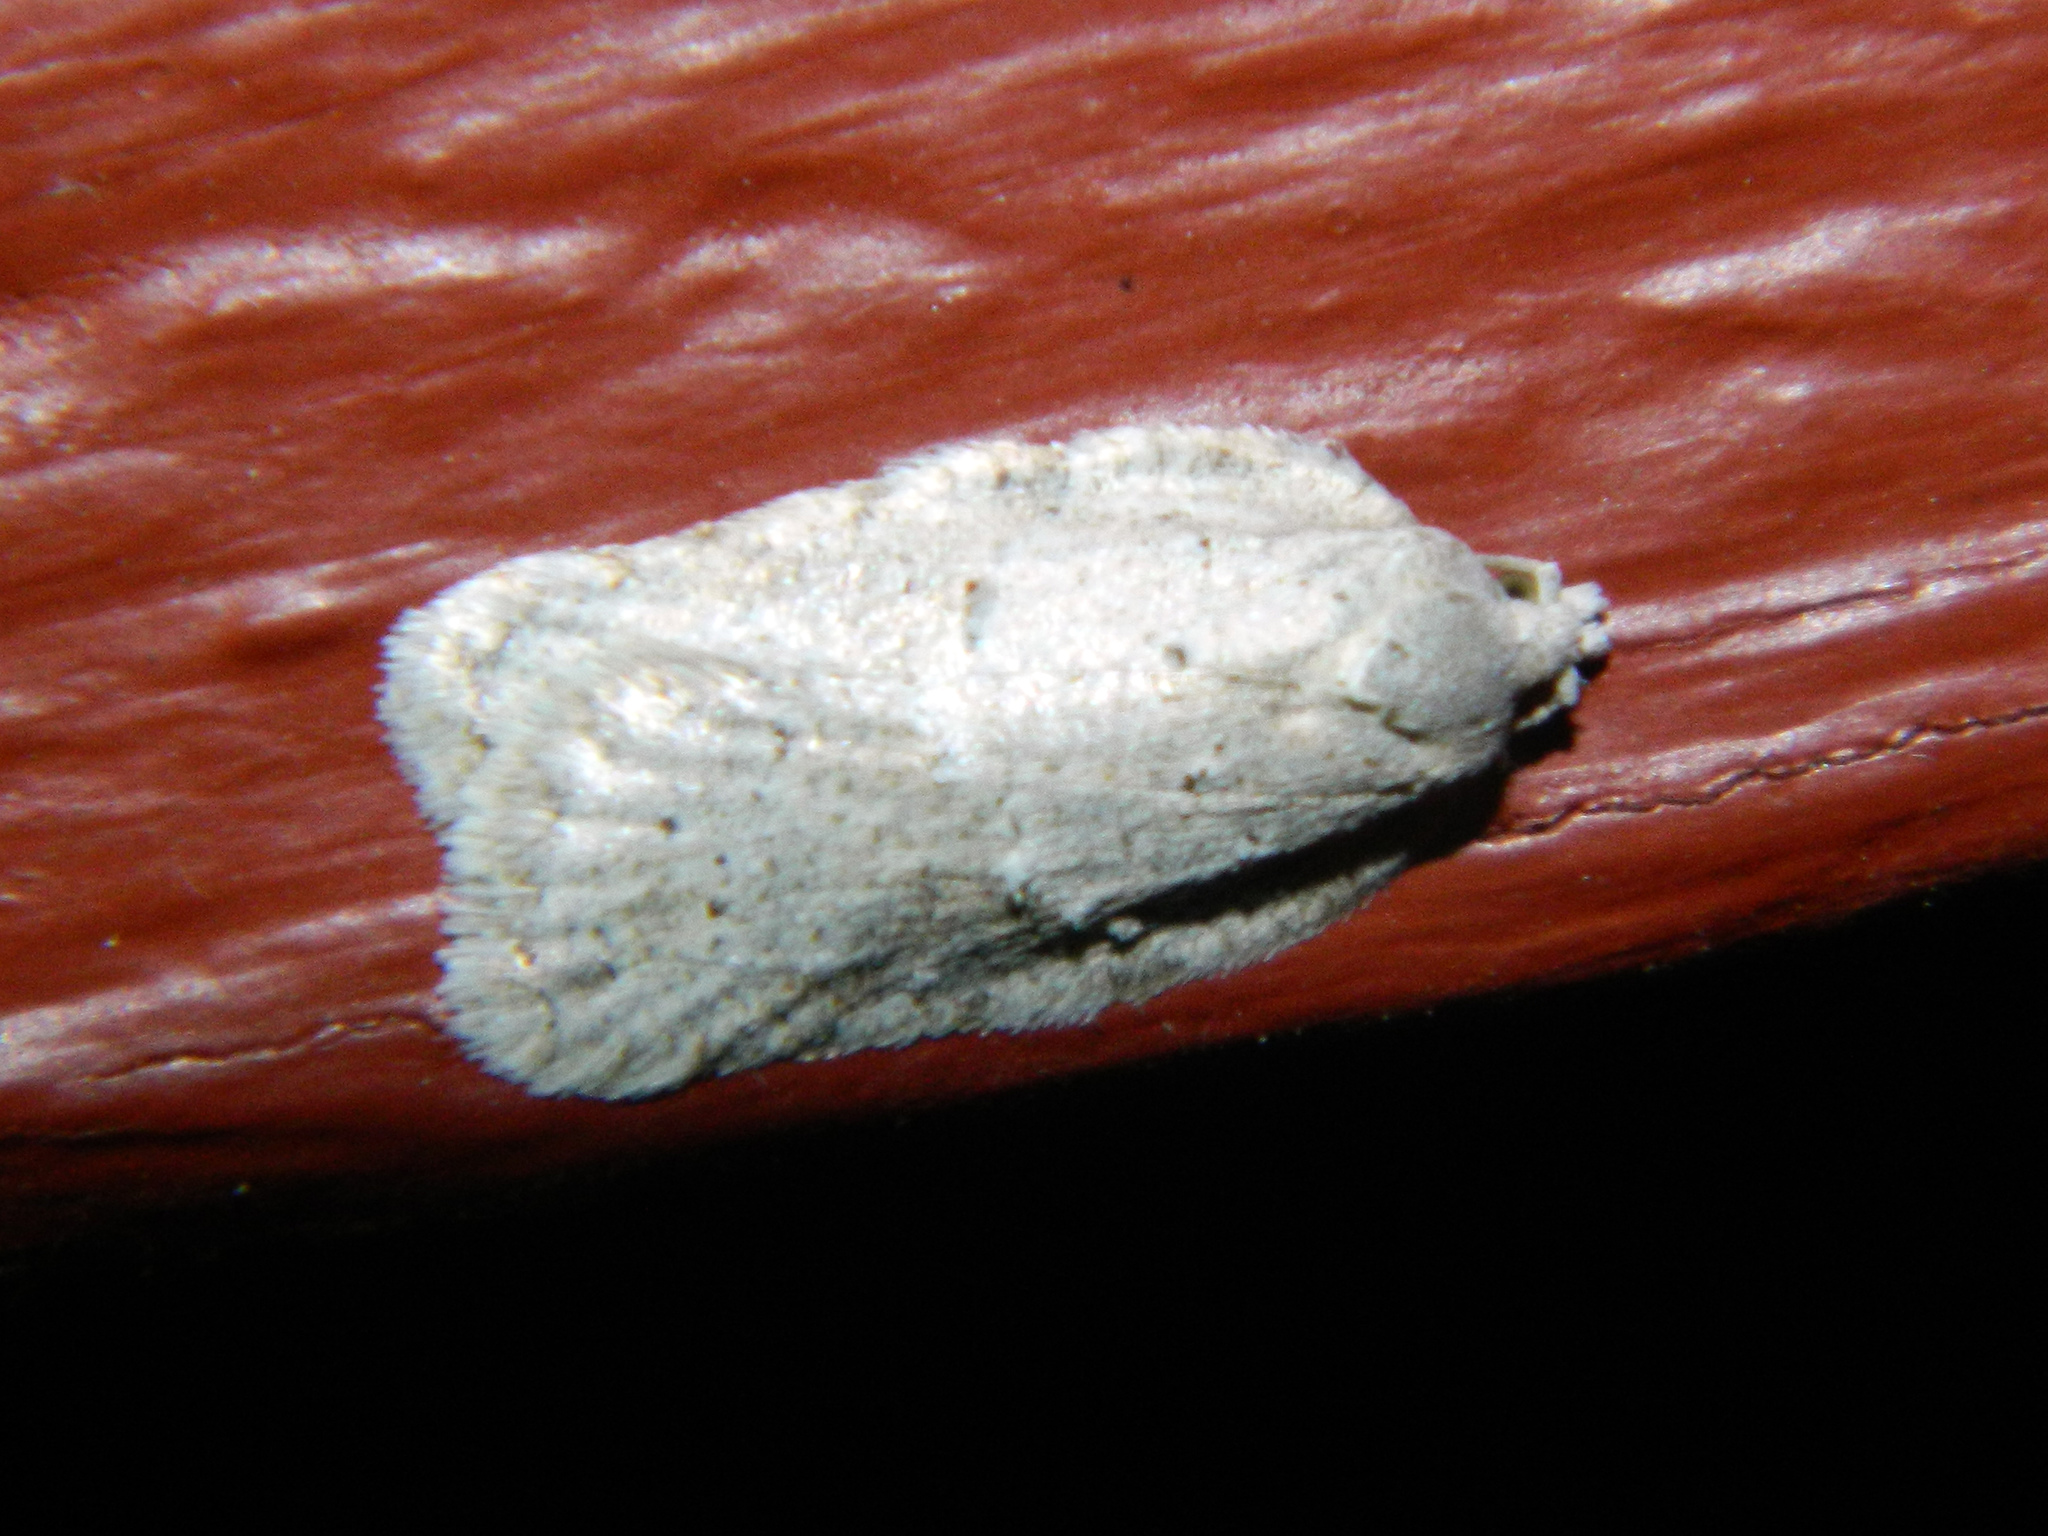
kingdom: Animalia
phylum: Arthropoda
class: Insecta
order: Lepidoptera
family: Tortricidae
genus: Acleris
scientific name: Acleris placidana
